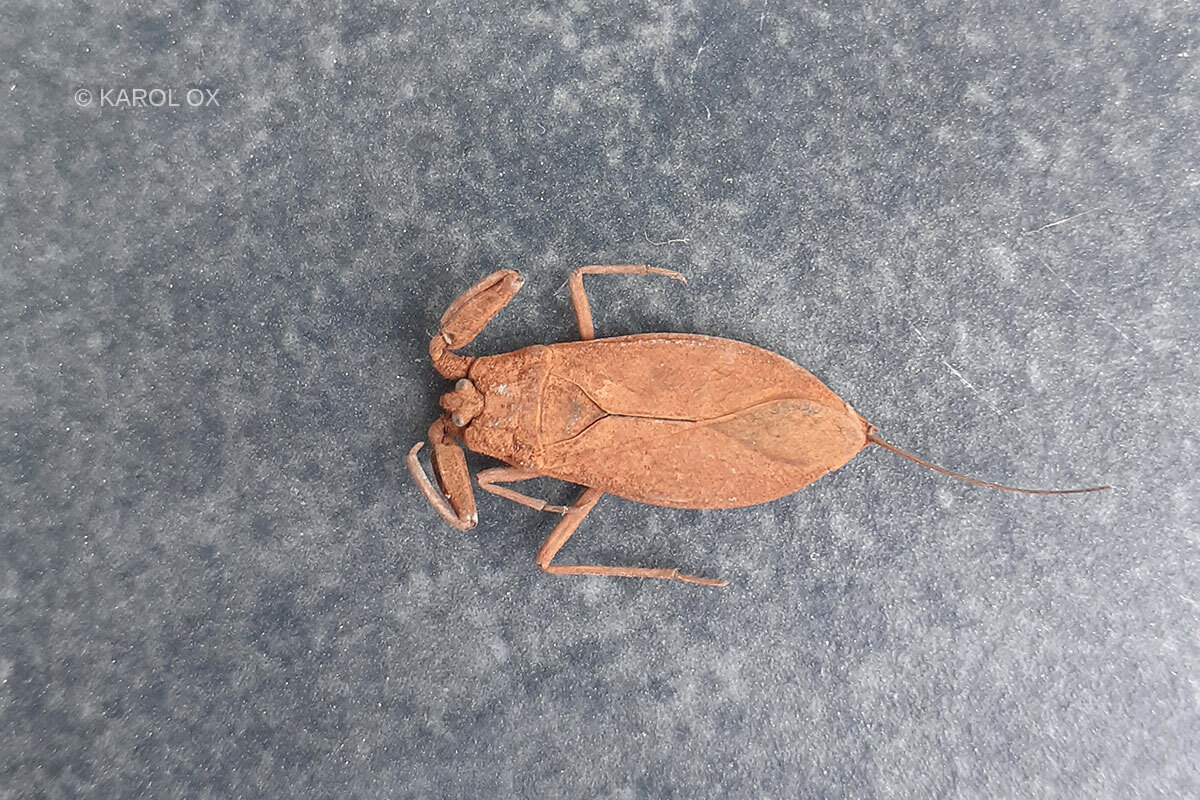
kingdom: Animalia
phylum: Arthropoda
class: Insecta
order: Hemiptera
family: Nepidae
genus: Nepa
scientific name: Nepa cinerea
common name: Water scorpion
